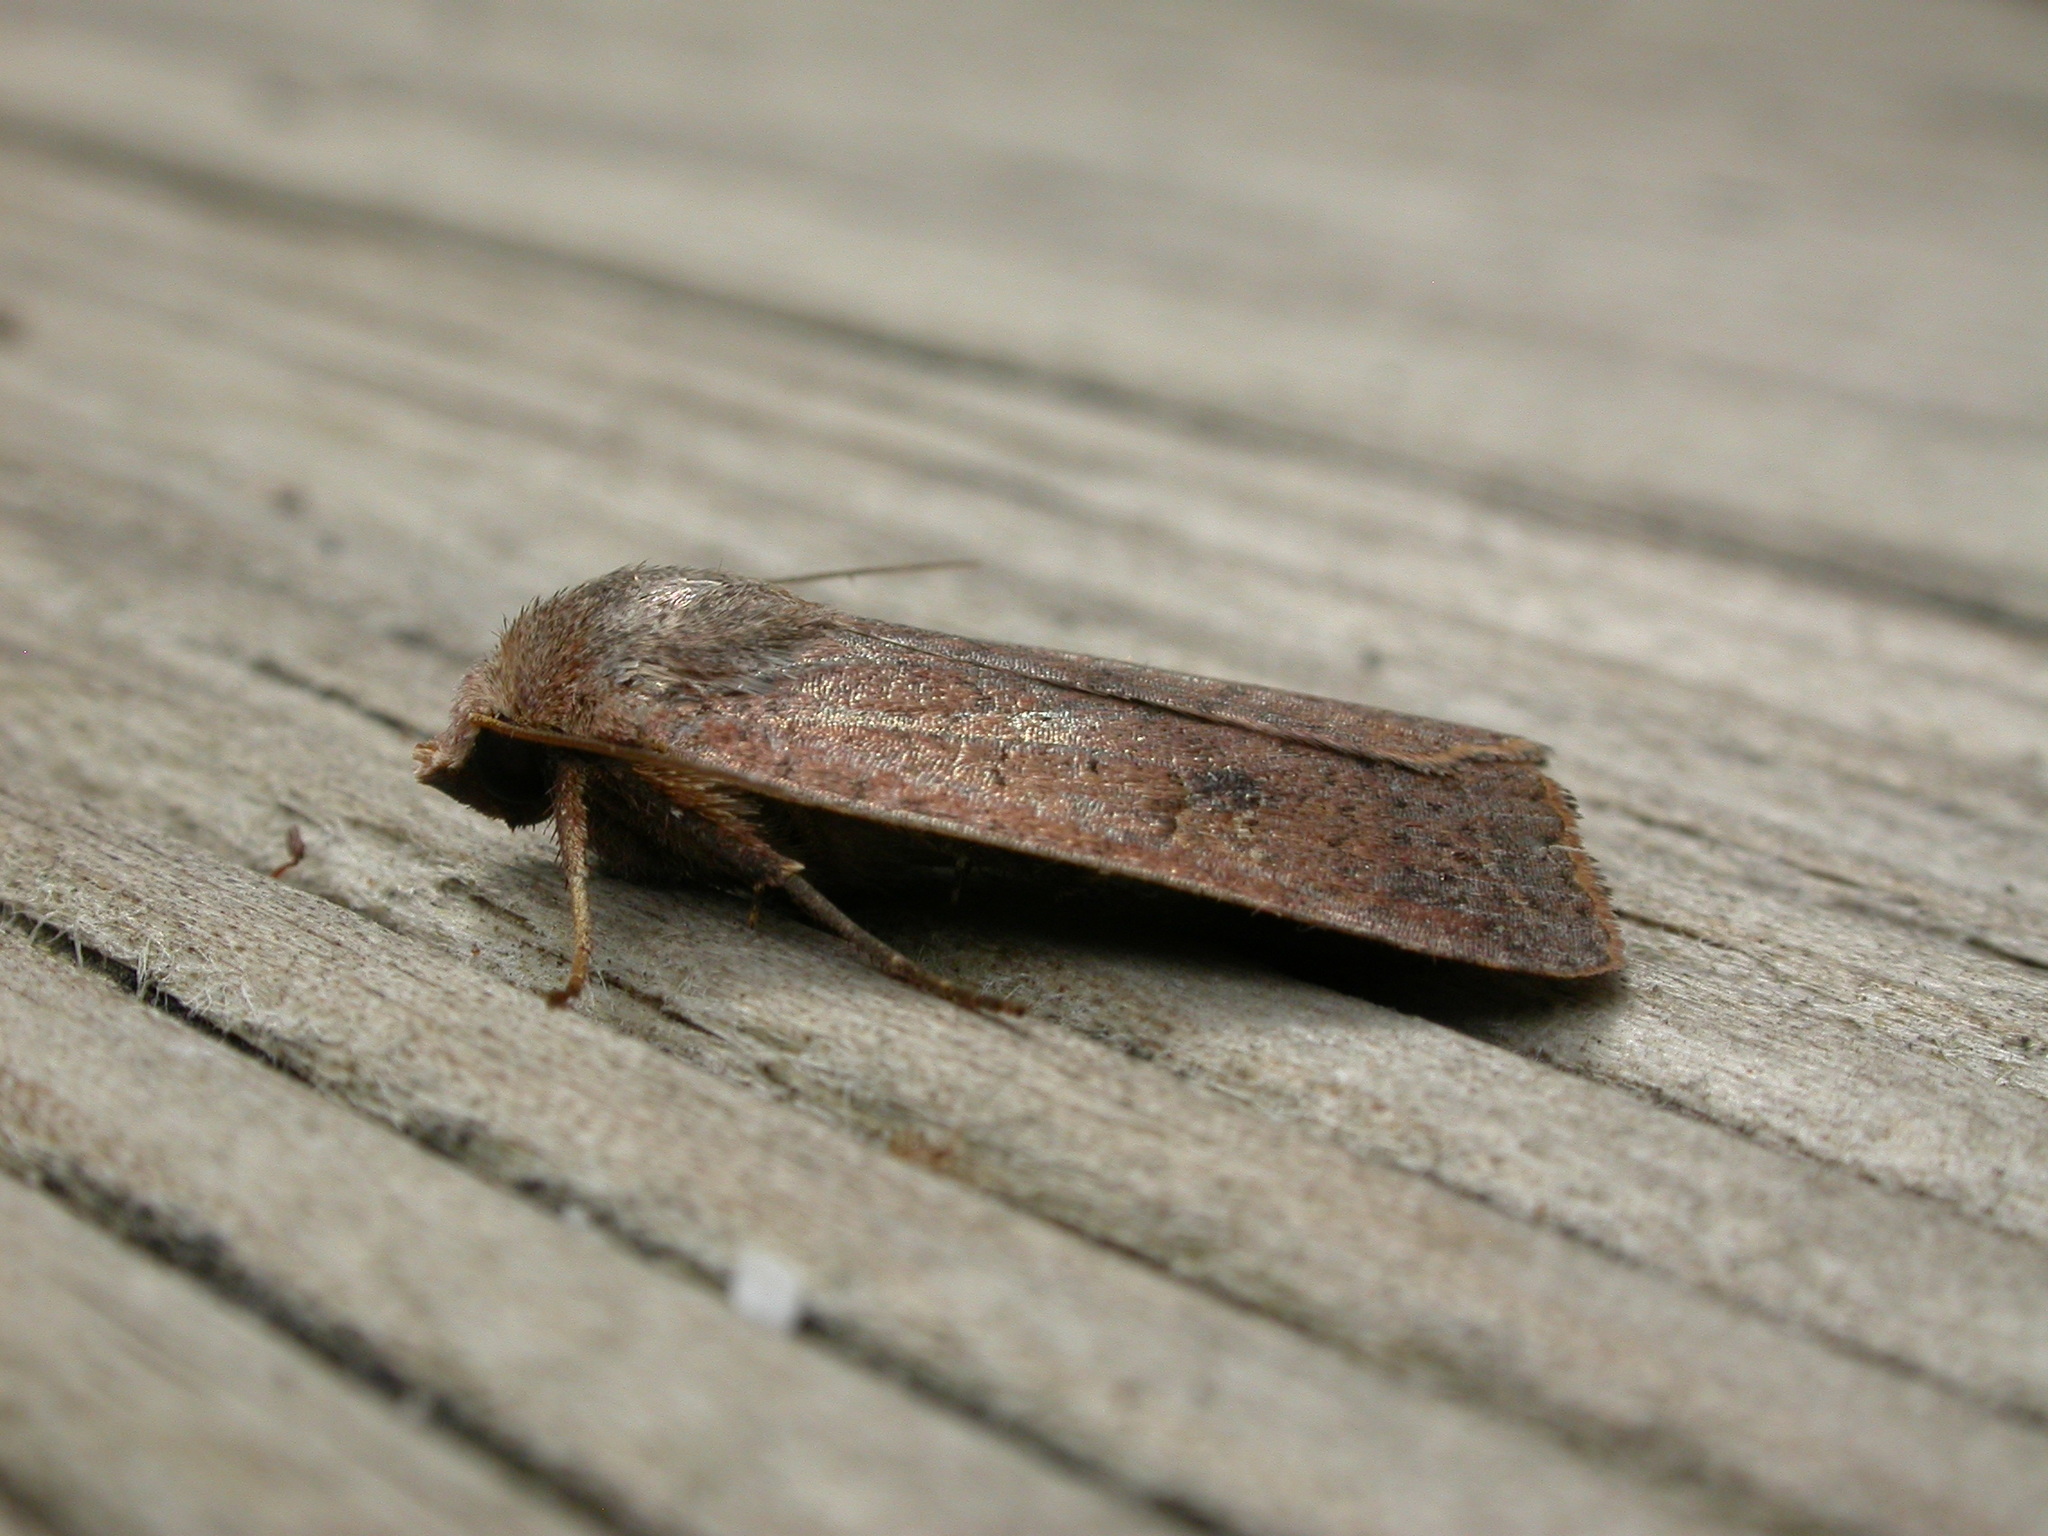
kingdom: Animalia
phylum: Arthropoda
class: Insecta
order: Lepidoptera
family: Noctuidae
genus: Diarsia
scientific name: Diarsia intermixta
